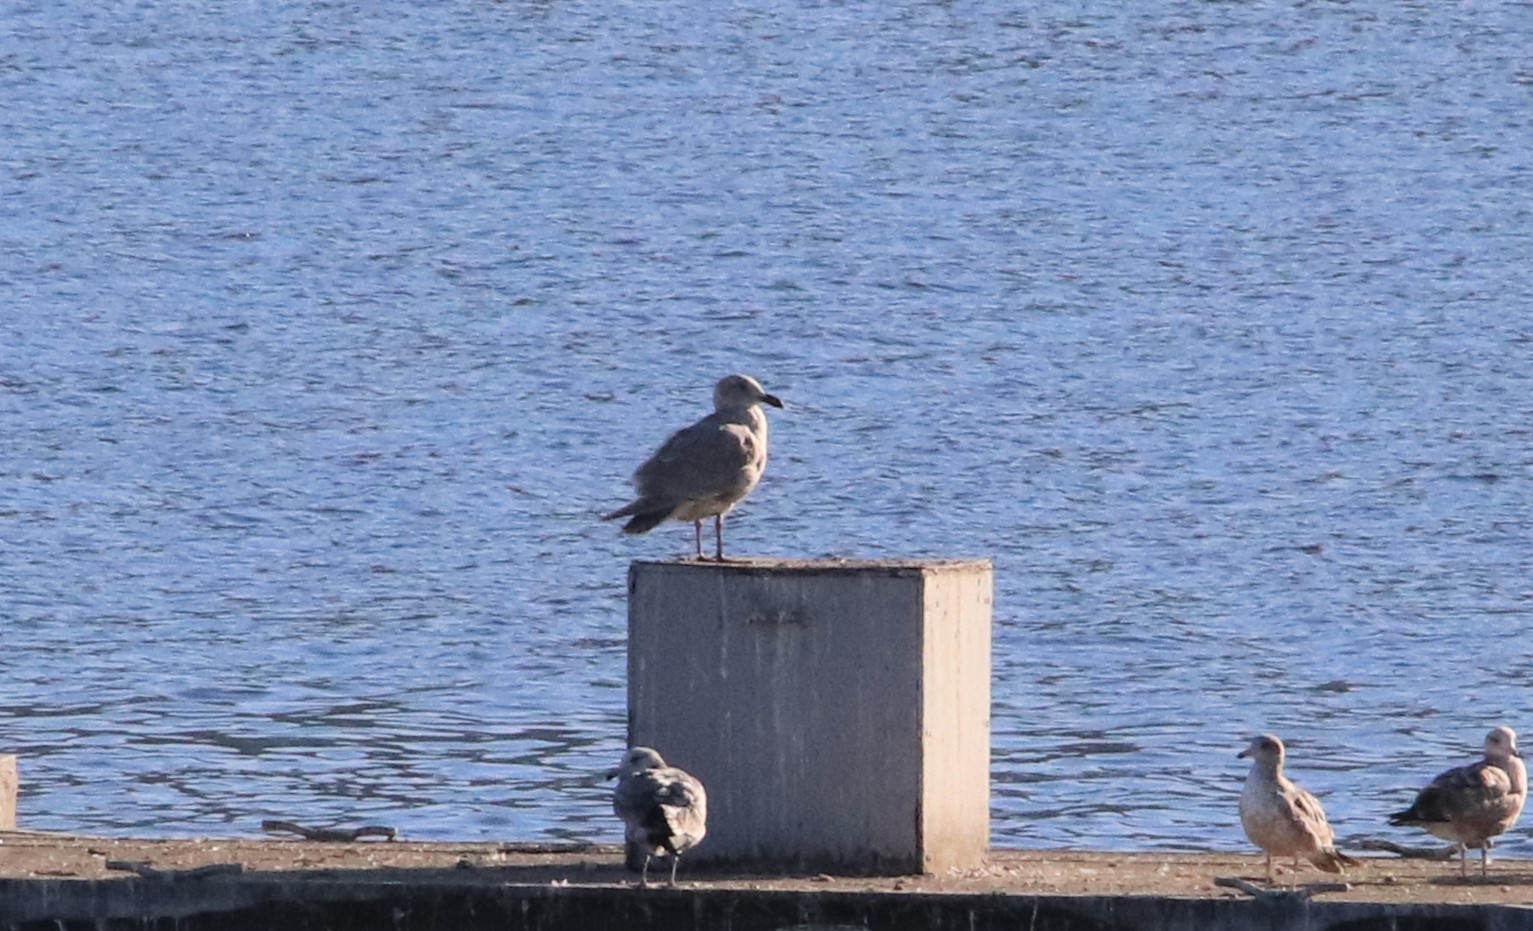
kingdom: Animalia
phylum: Chordata
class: Aves
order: Charadriiformes
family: Laridae
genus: Larus
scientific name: Larus glaucescens
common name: Glaucous-winged gull
